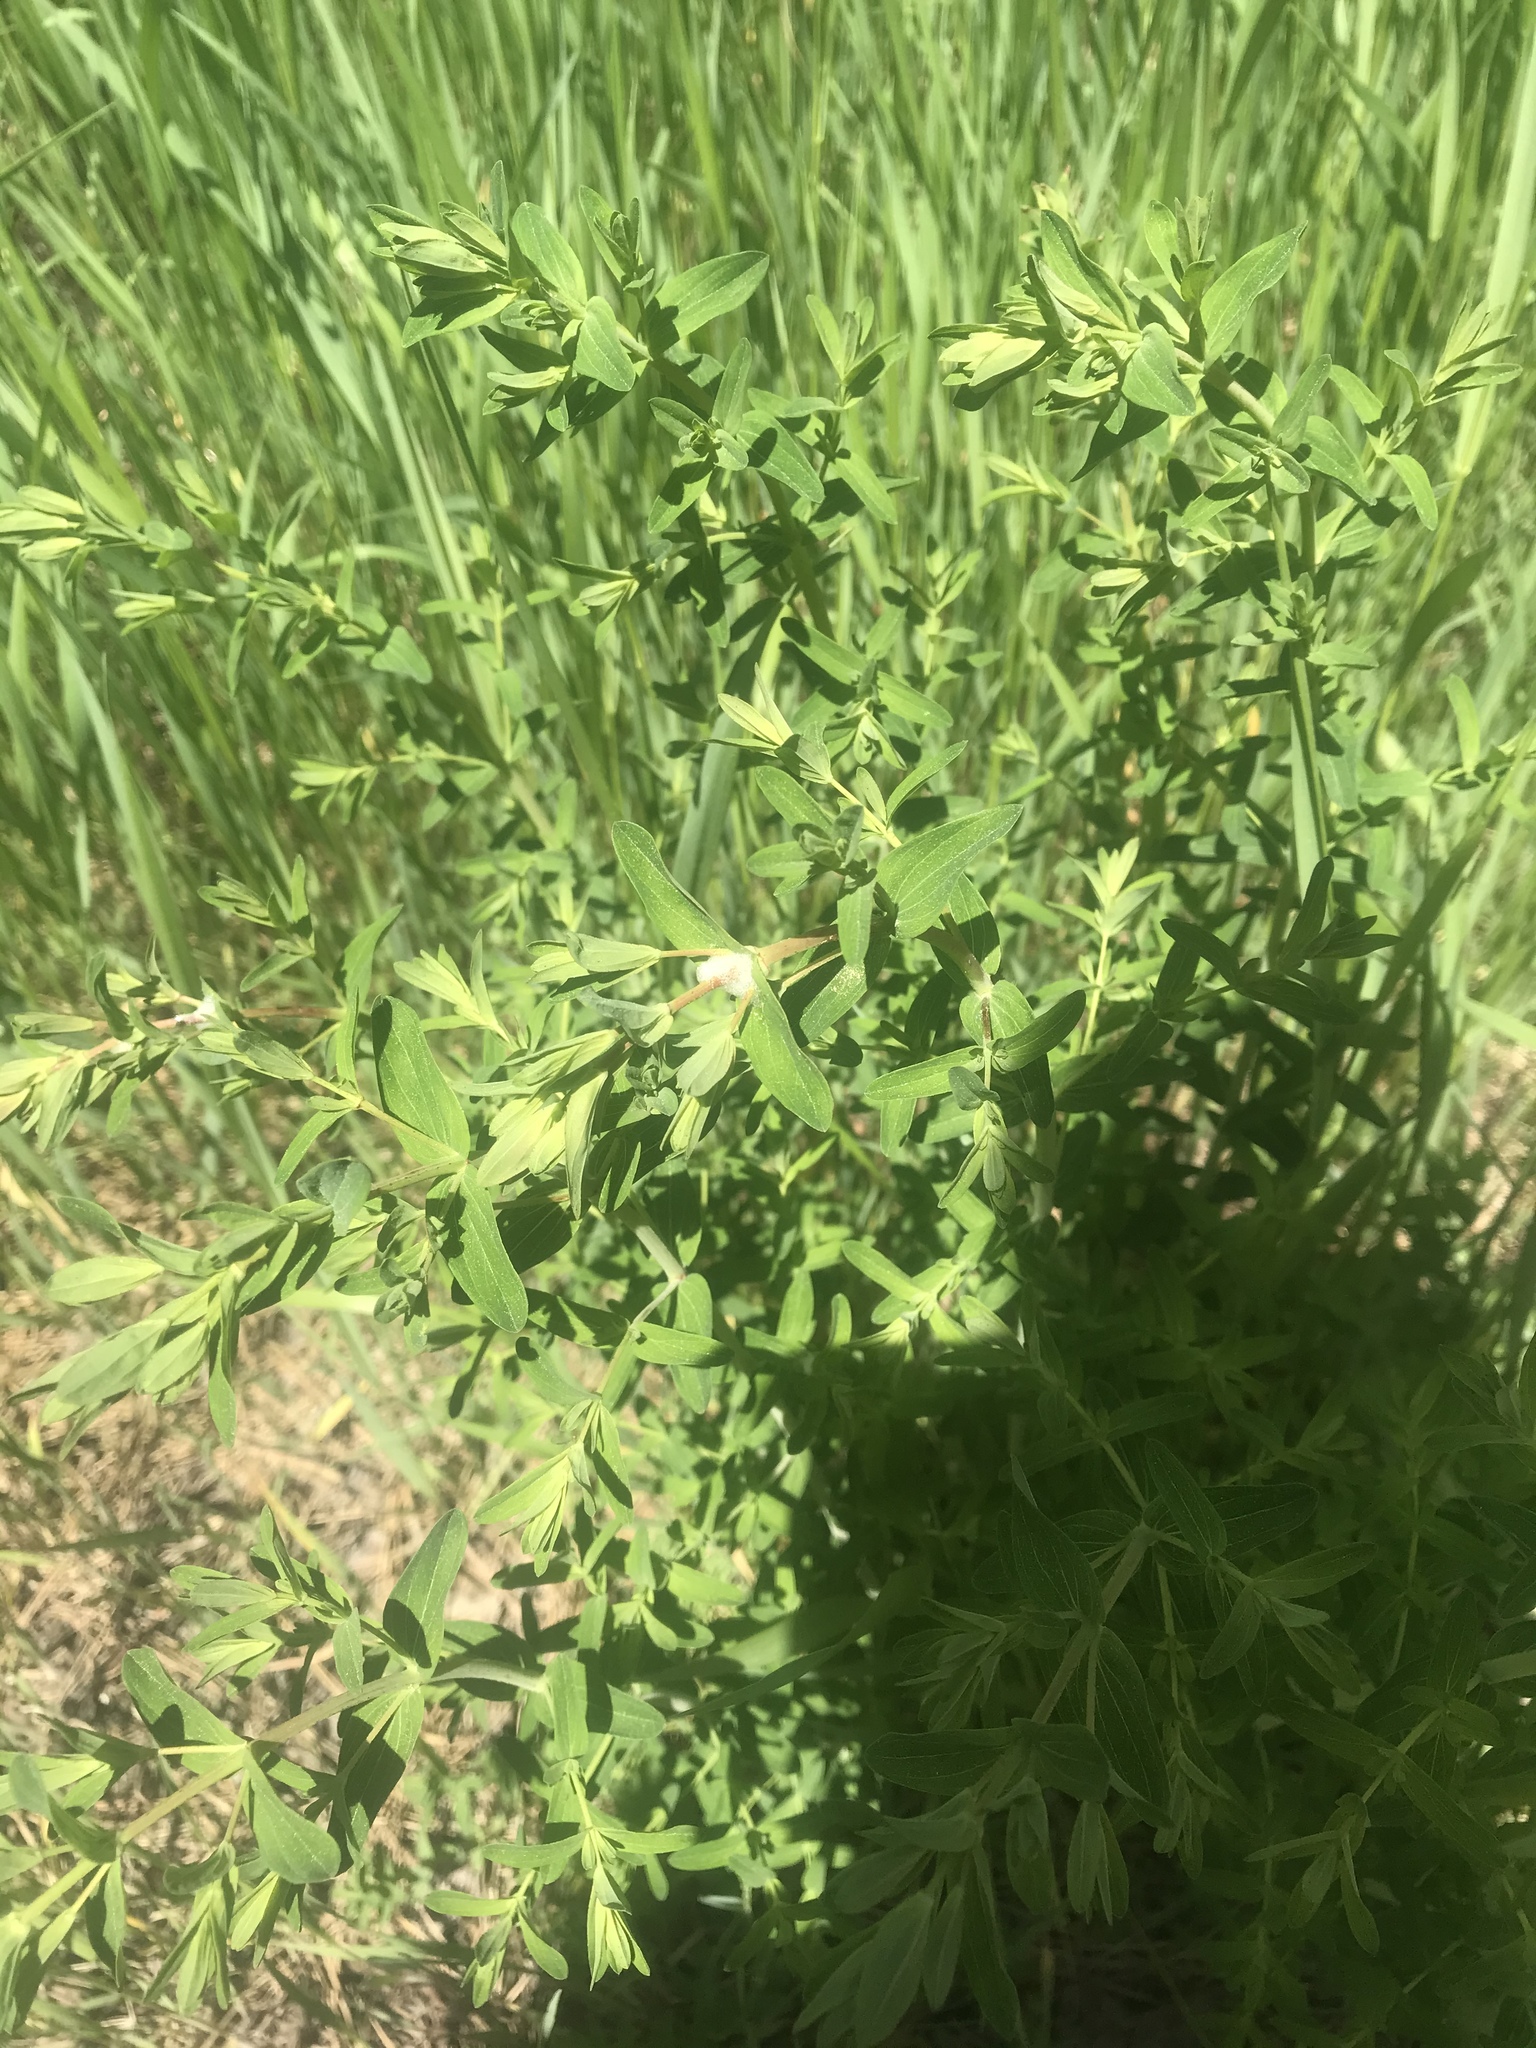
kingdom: Plantae
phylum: Tracheophyta
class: Magnoliopsida
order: Malpighiales
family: Hypericaceae
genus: Hypericum
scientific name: Hypericum perforatum
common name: Common st. johnswort
